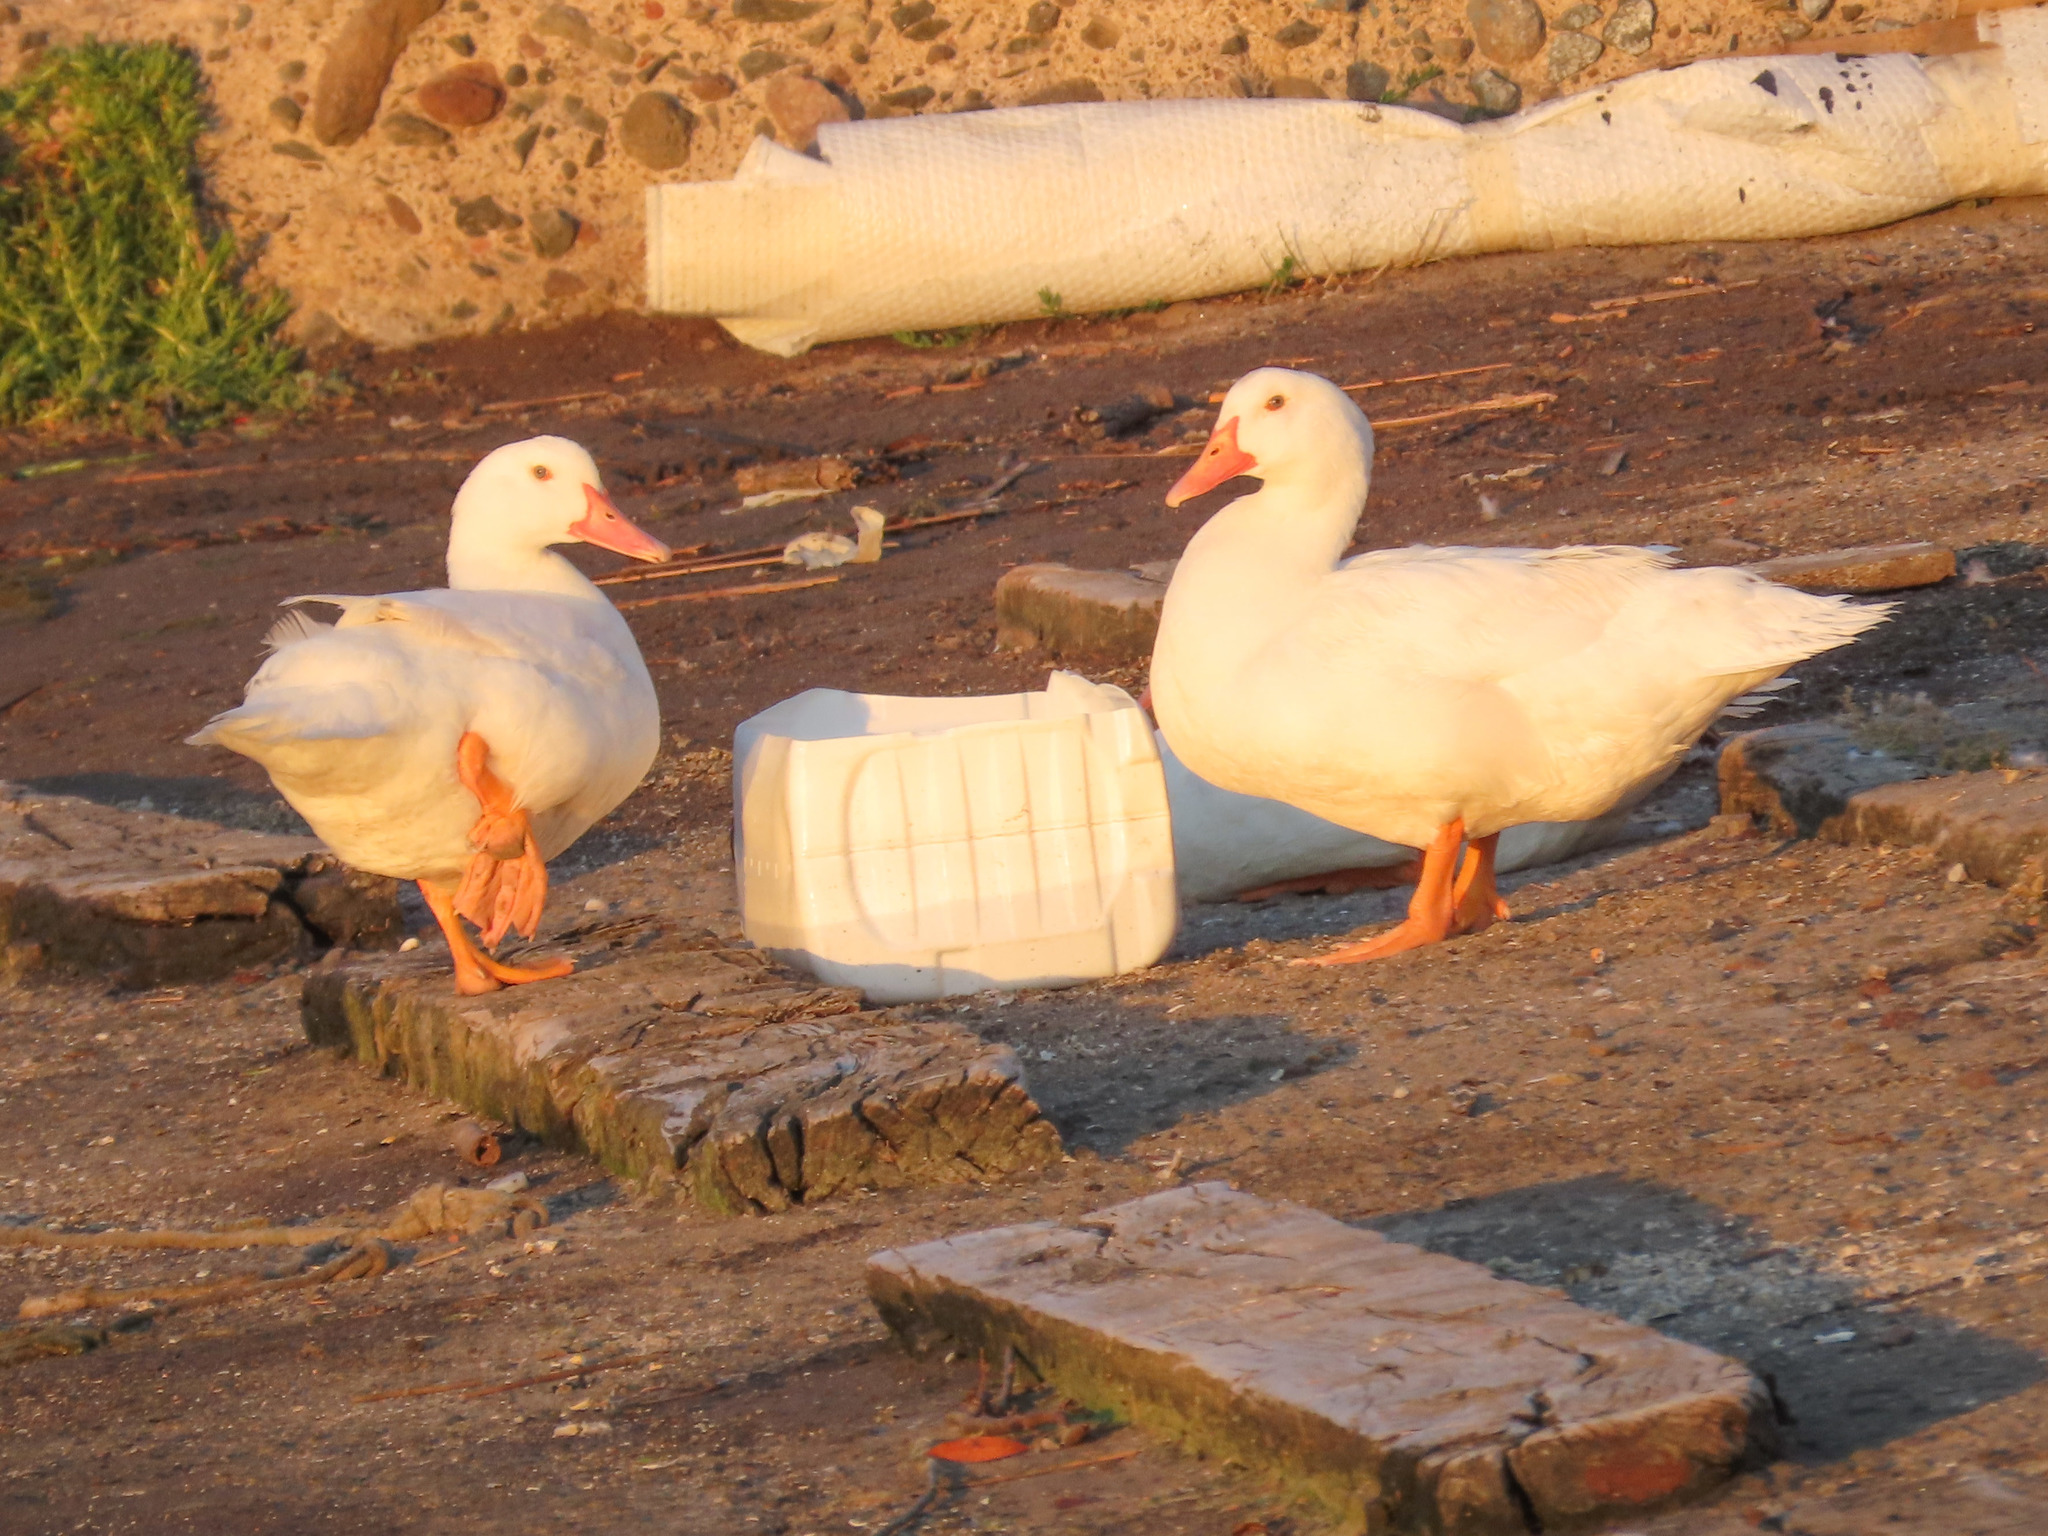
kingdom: Animalia
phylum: Chordata
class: Aves
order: Anseriformes
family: Anatidae
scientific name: Anatidae
